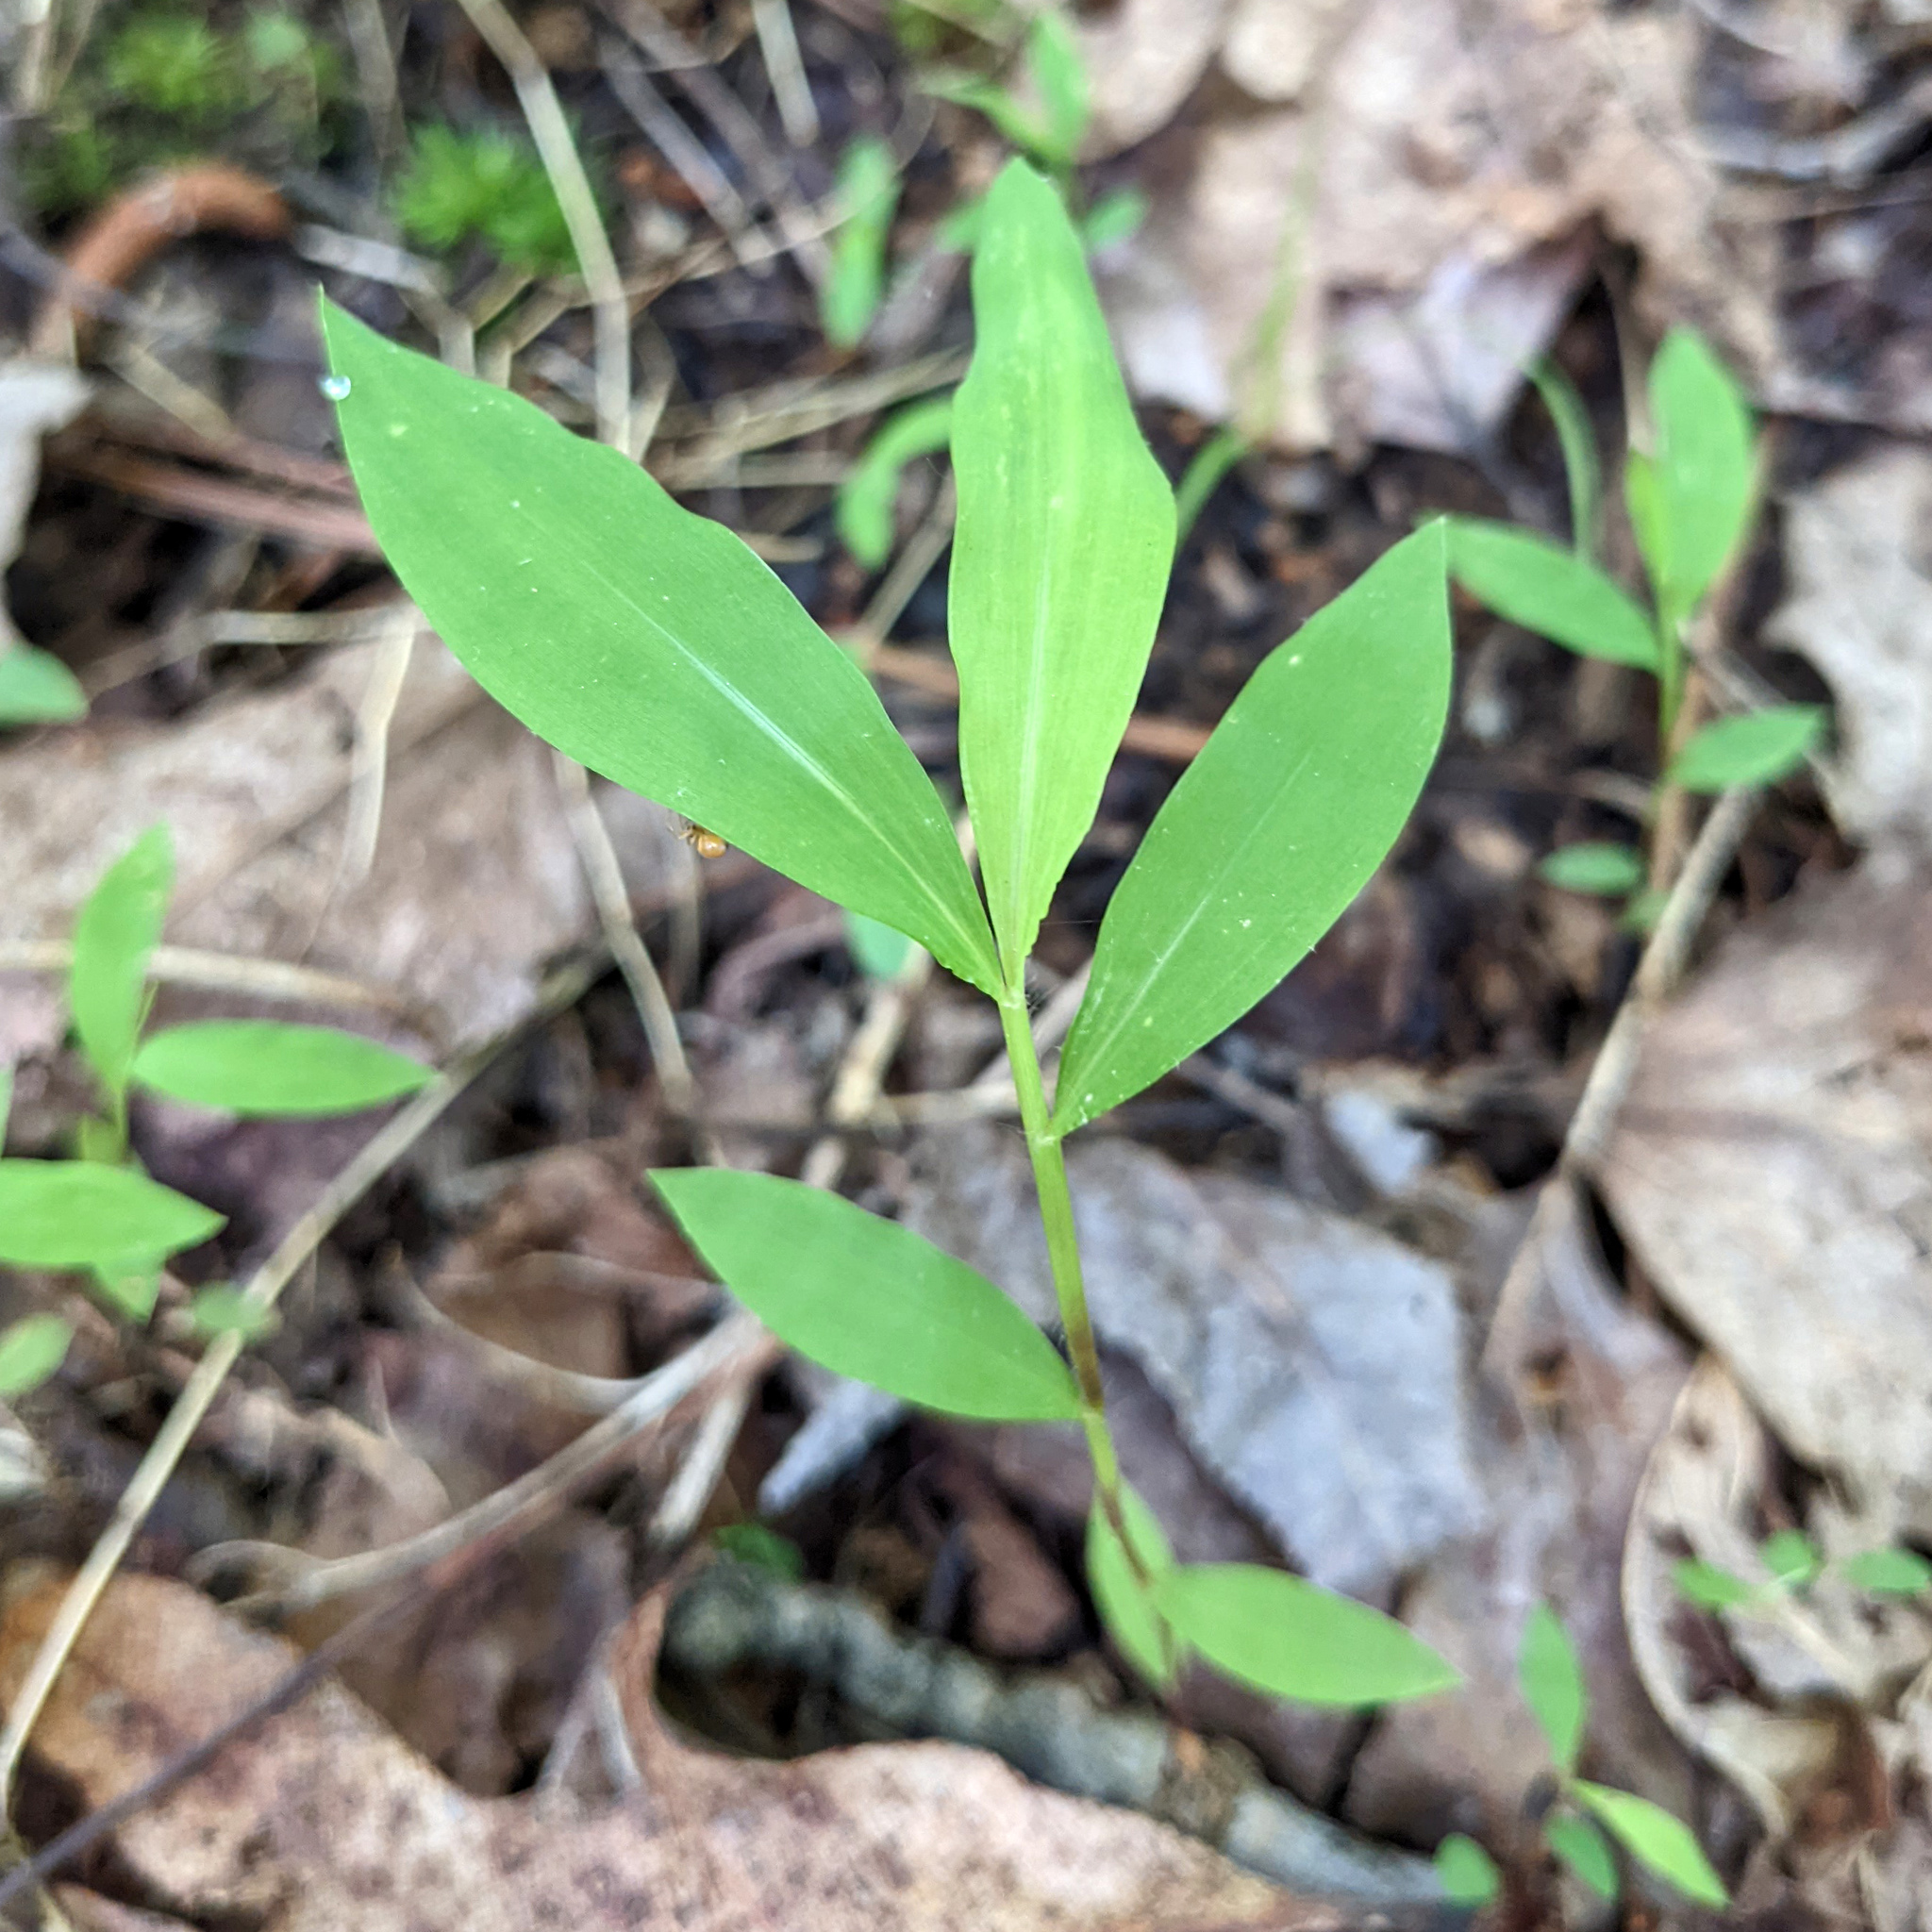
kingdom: Plantae
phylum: Tracheophyta
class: Liliopsida
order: Poales
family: Poaceae
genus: Microstegium
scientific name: Microstegium vimineum
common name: Japanese stiltgrass
